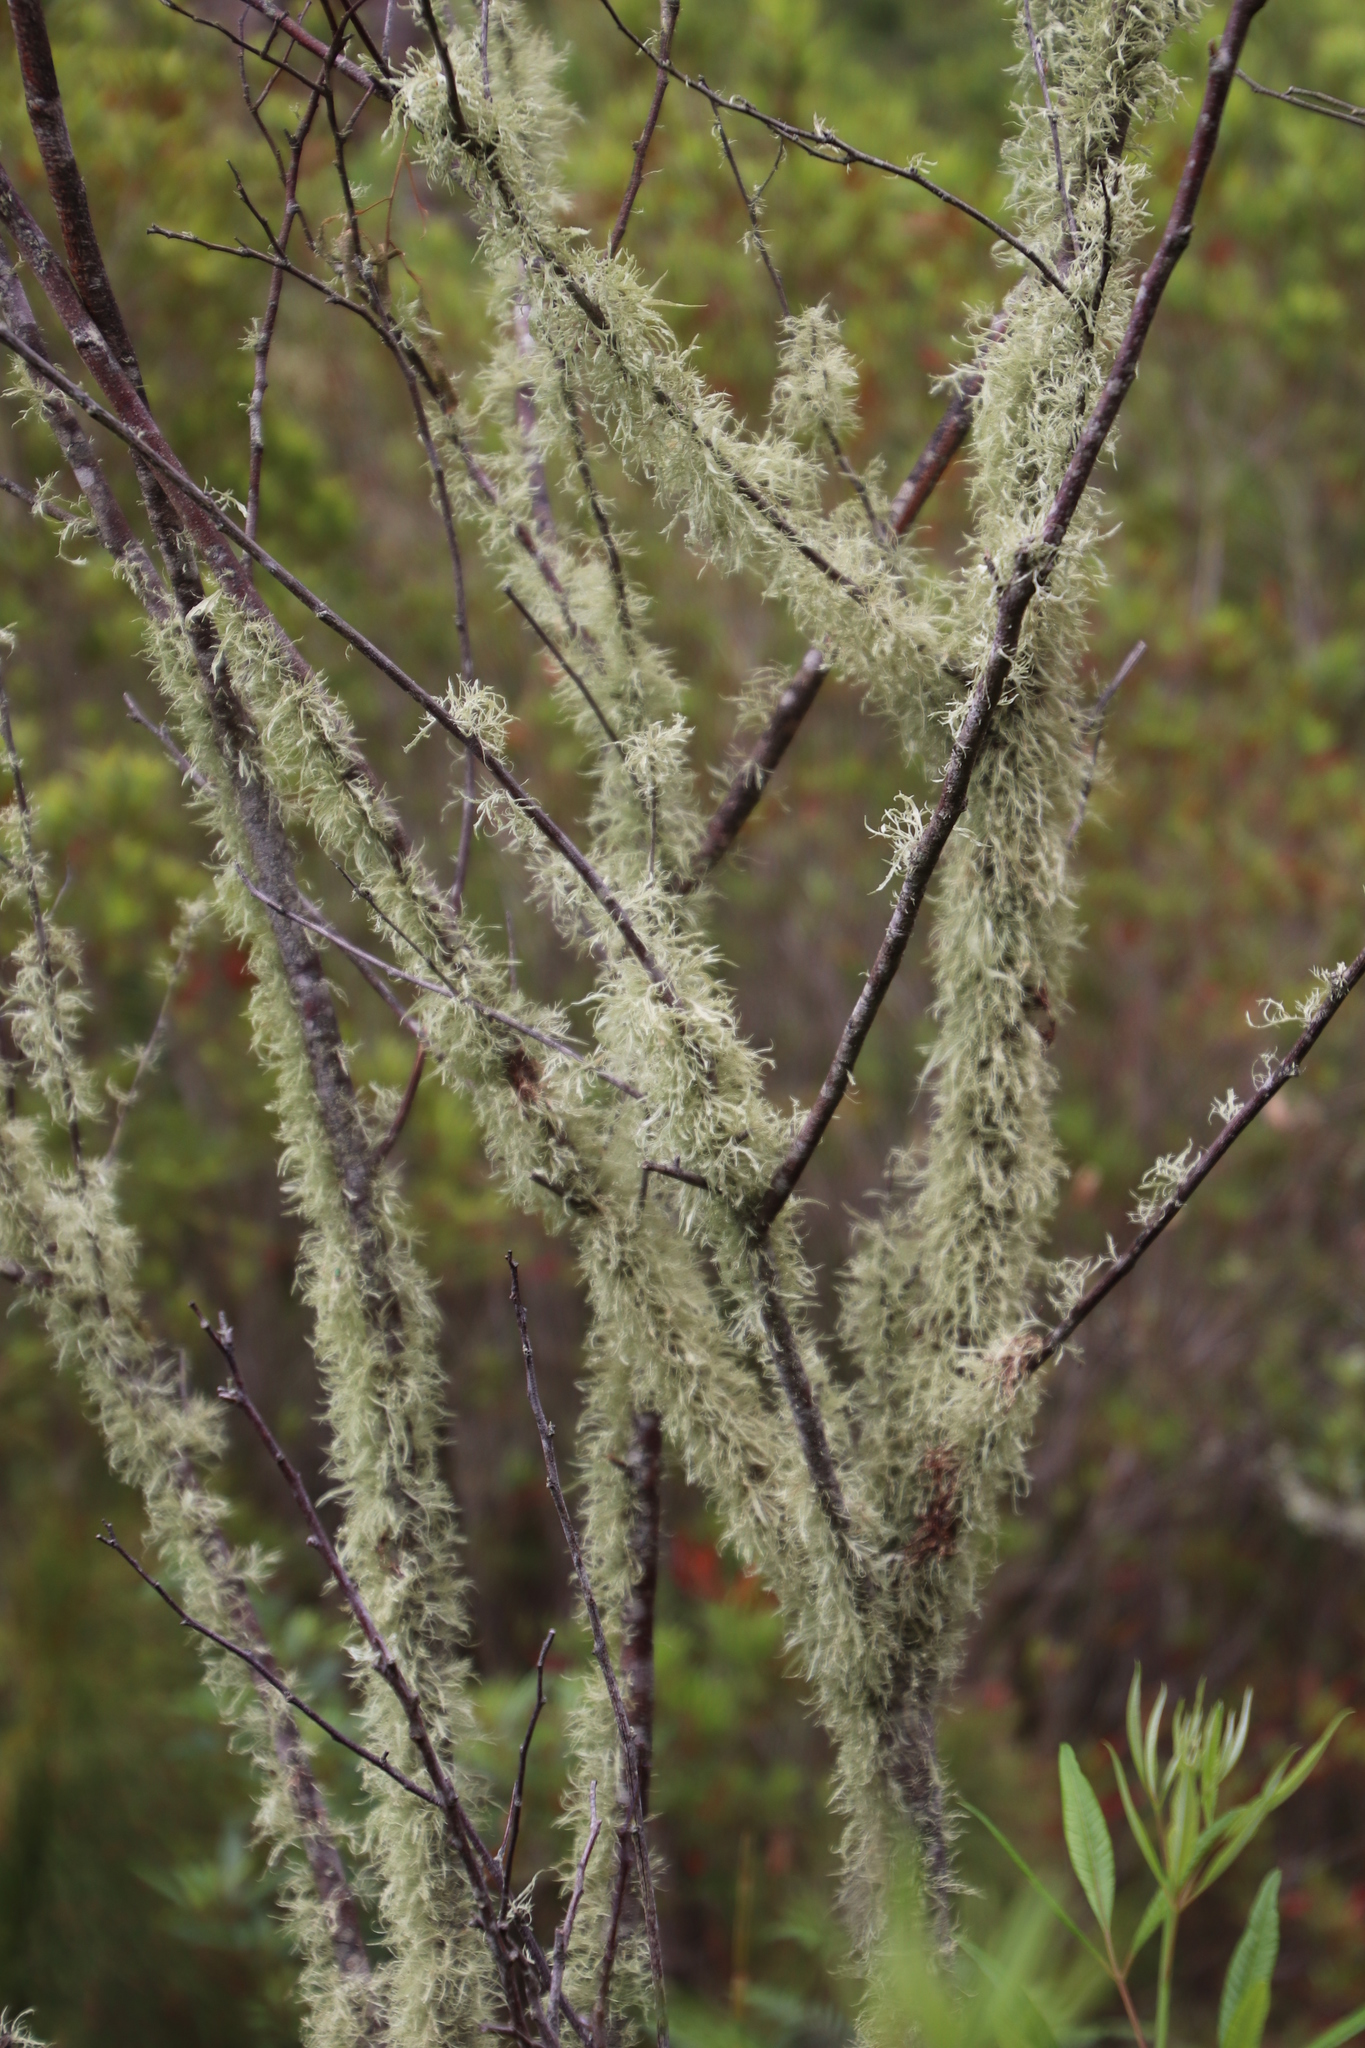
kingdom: Fungi
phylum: Ascomycota
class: Lecanoromycetes
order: Lecanorales
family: Ramalinaceae
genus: Ramalina
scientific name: Ramalina celastri
